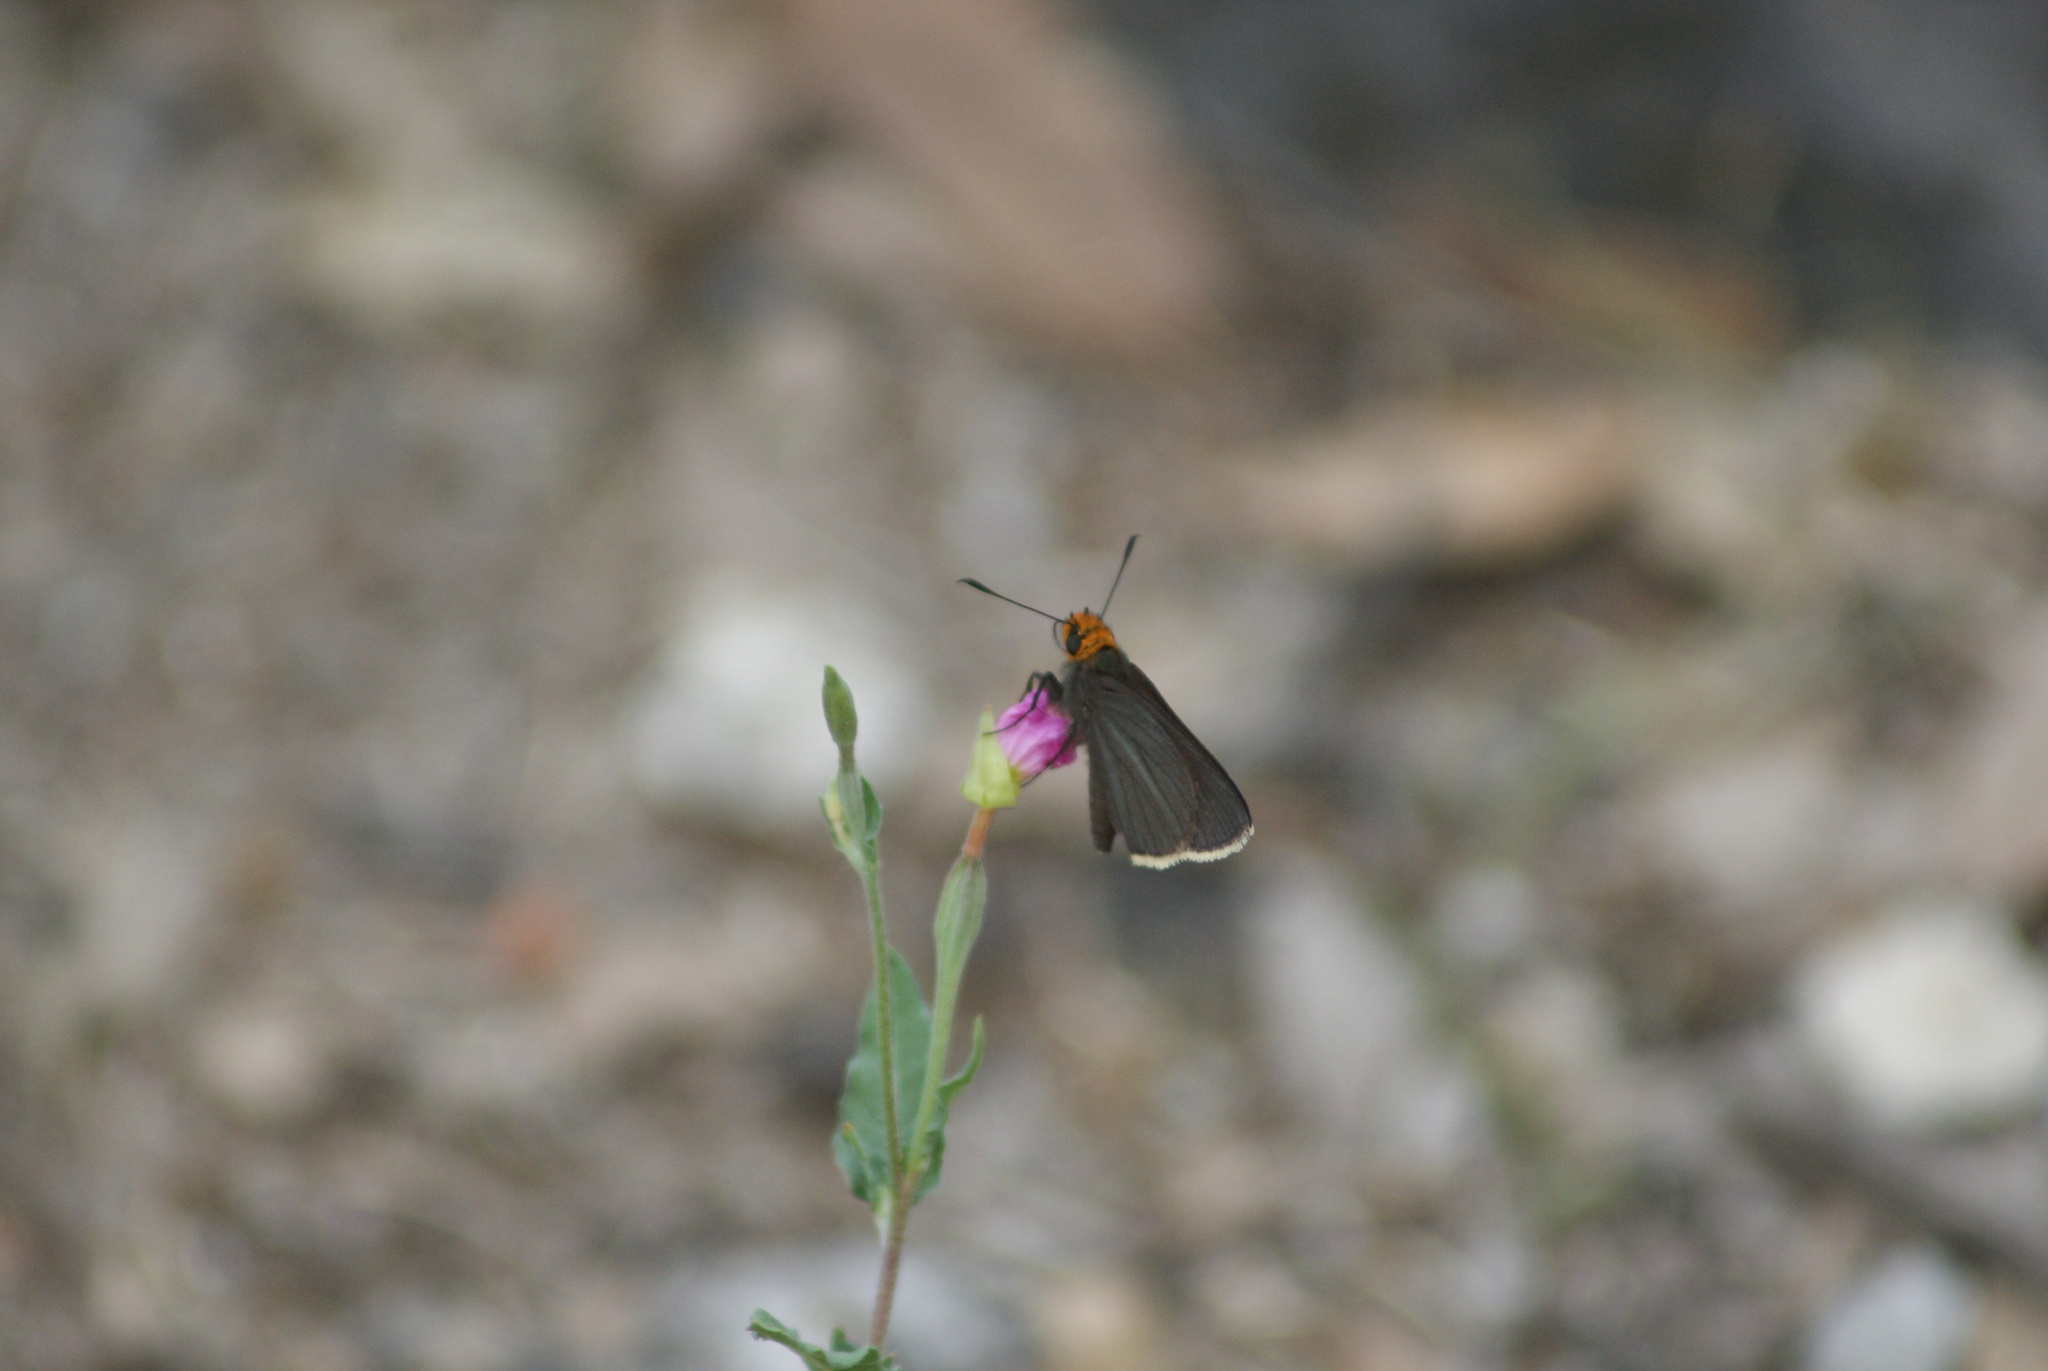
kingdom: Animalia
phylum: Arthropoda
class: Insecta
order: Lepidoptera
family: Hesperiidae
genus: Mastor
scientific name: Mastor fimbriata
